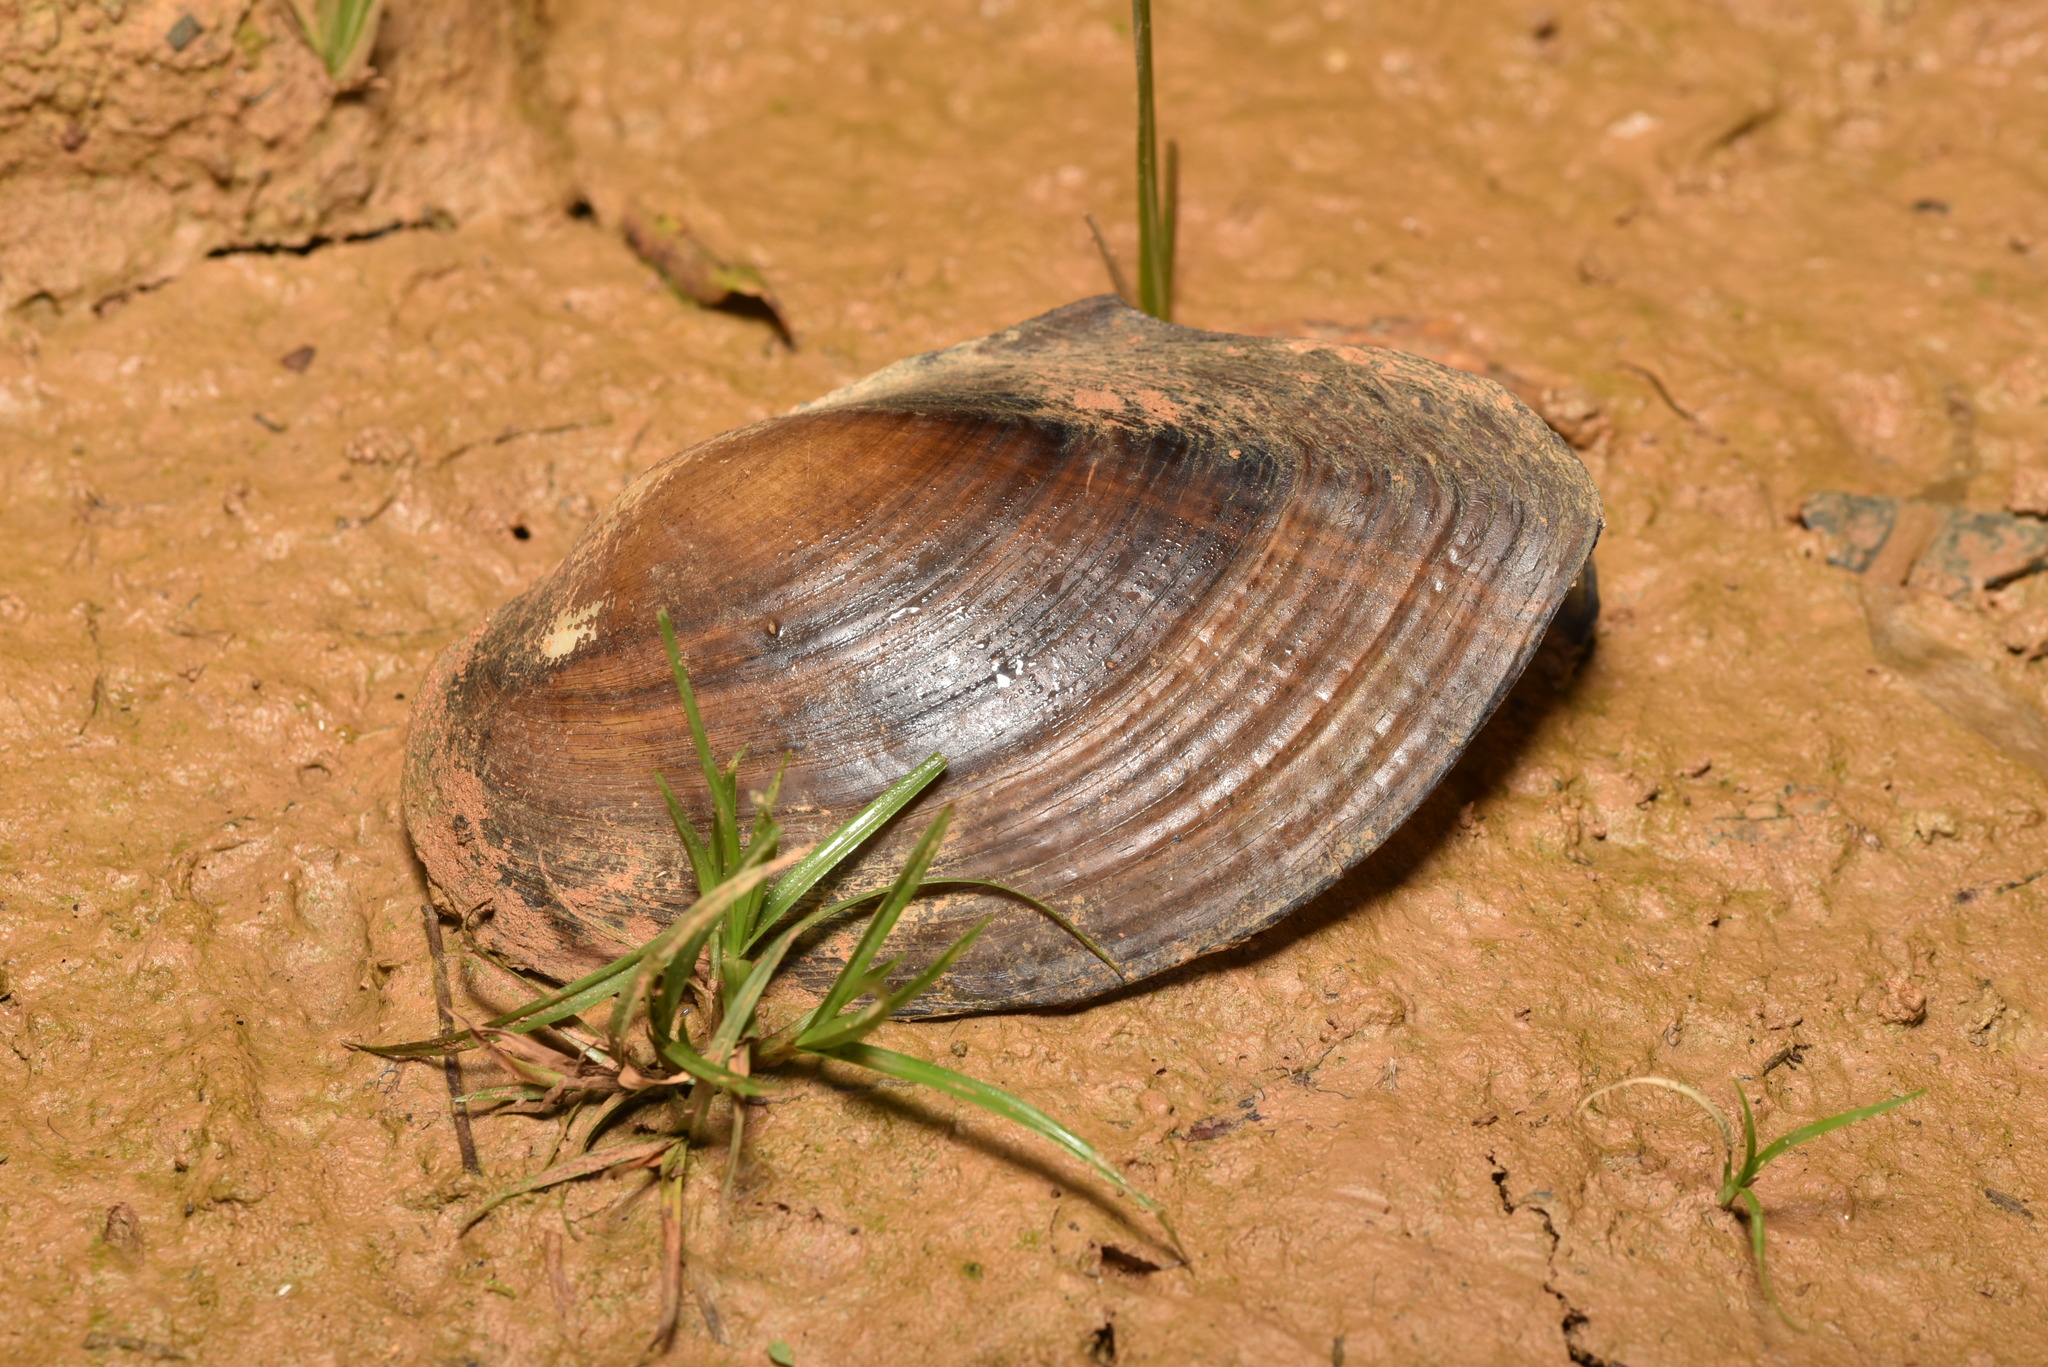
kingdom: Animalia
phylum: Mollusca
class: Bivalvia
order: Unionida
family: Unionidae
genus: Sinanodonta
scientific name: Sinanodonta woodiana
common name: Chinese pond mussel
